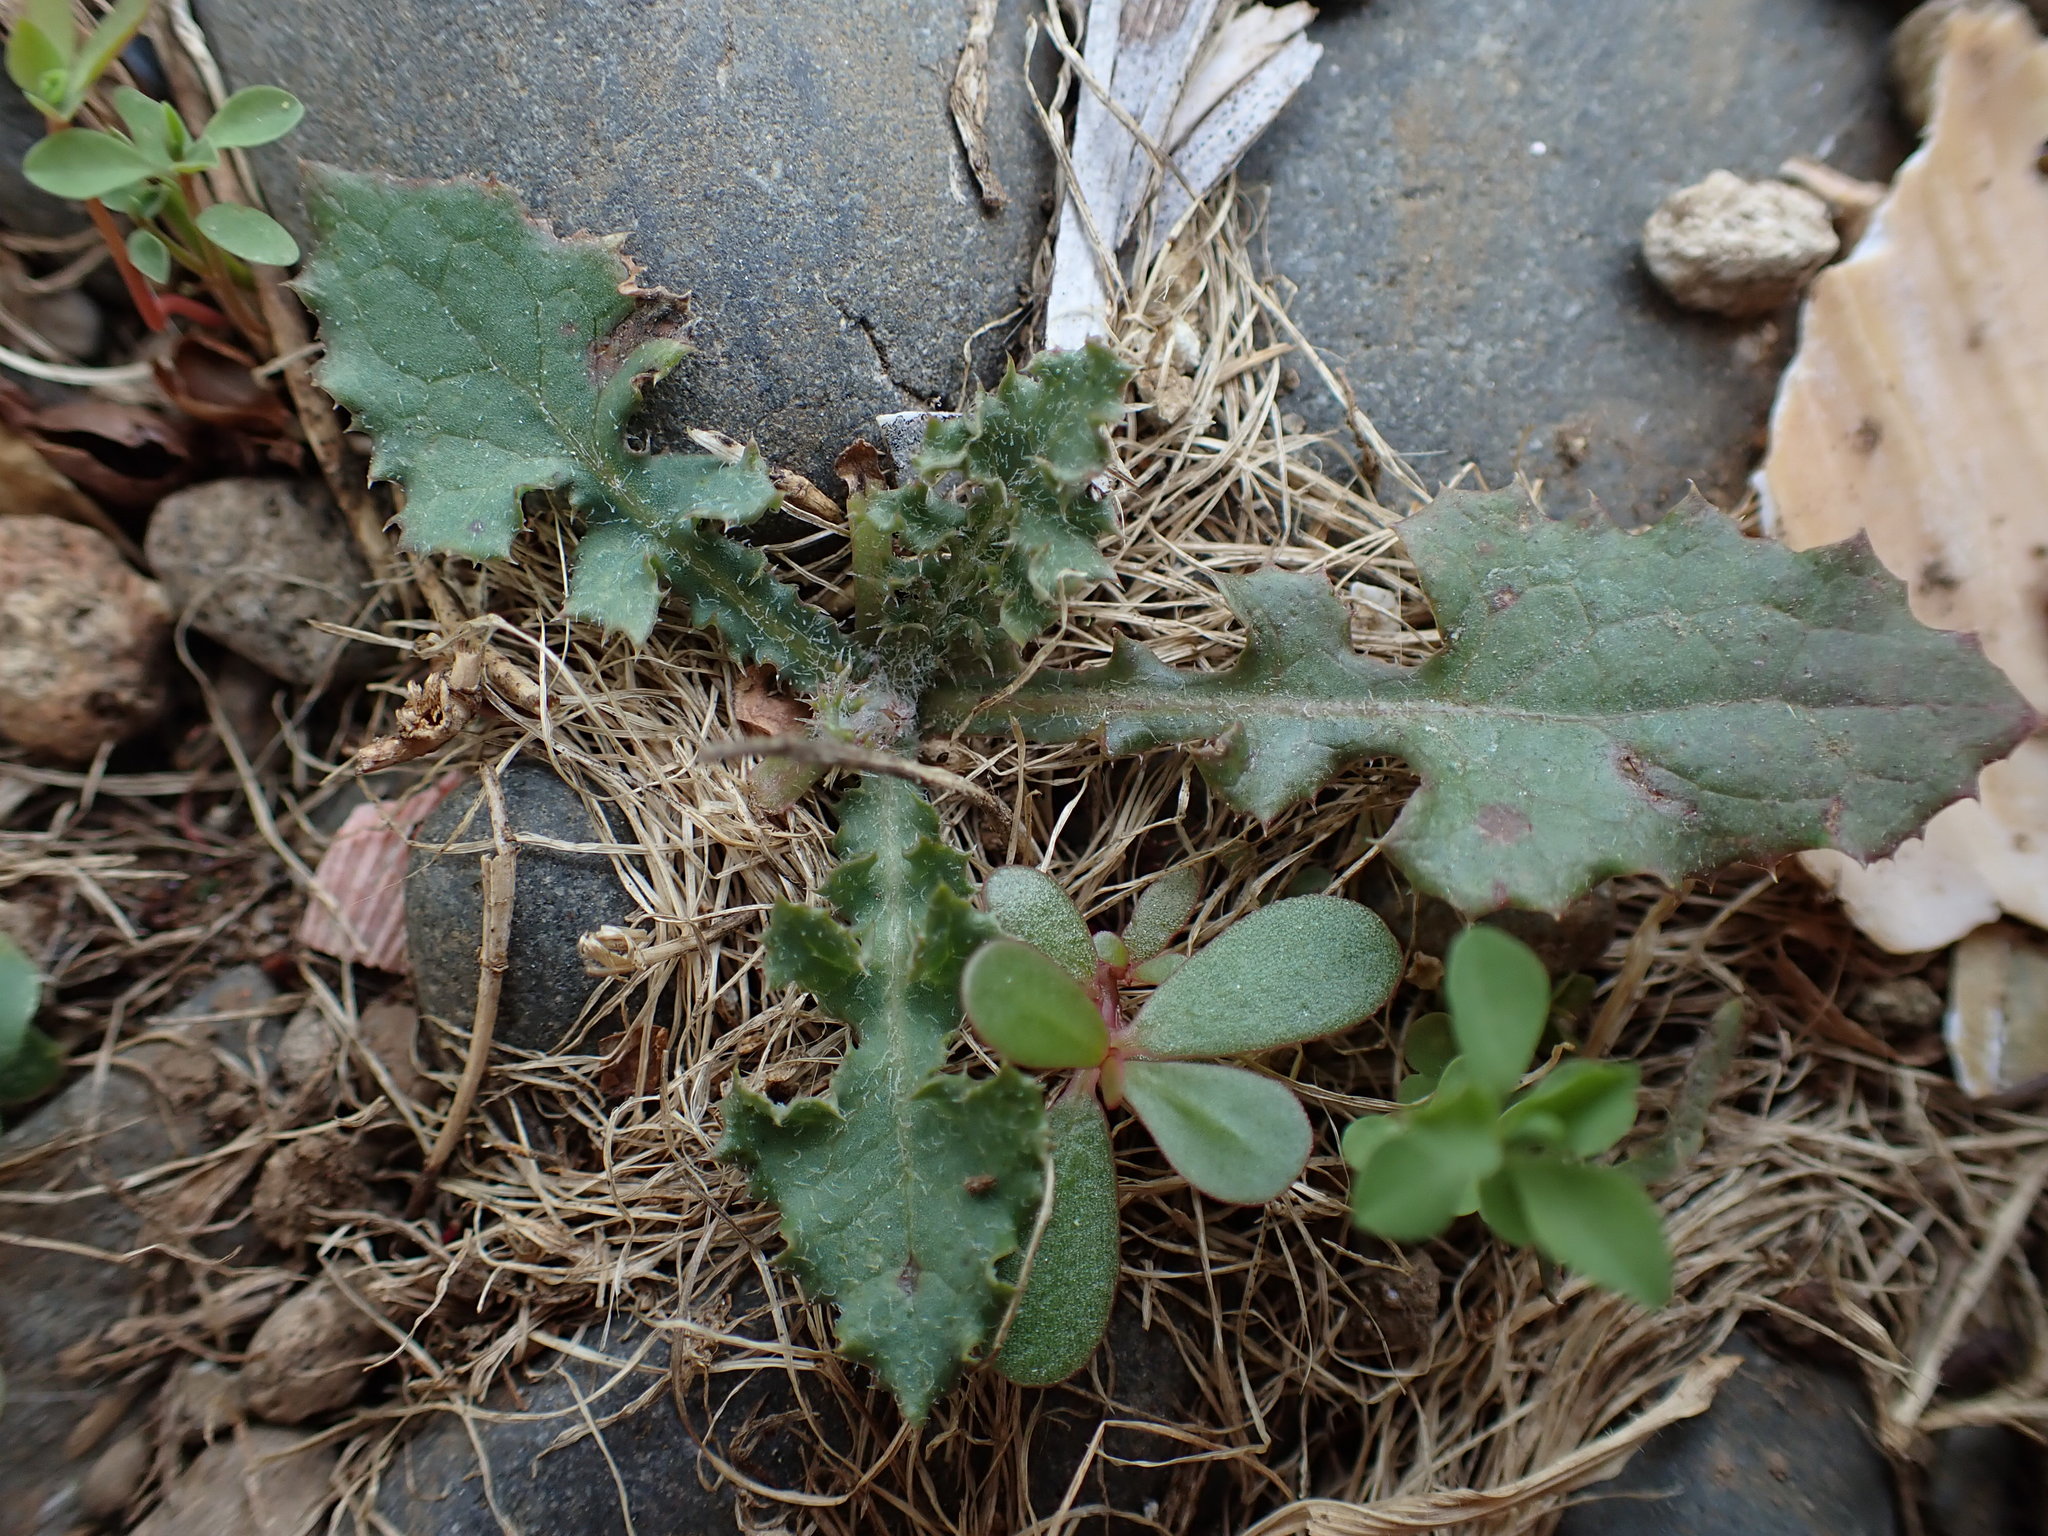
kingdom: Plantae
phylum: Tracheophyta
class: Magnoliopsida
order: Asterales
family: Asteraceae
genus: Cirsium
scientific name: Cirsium vulgare
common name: Bull thistle
